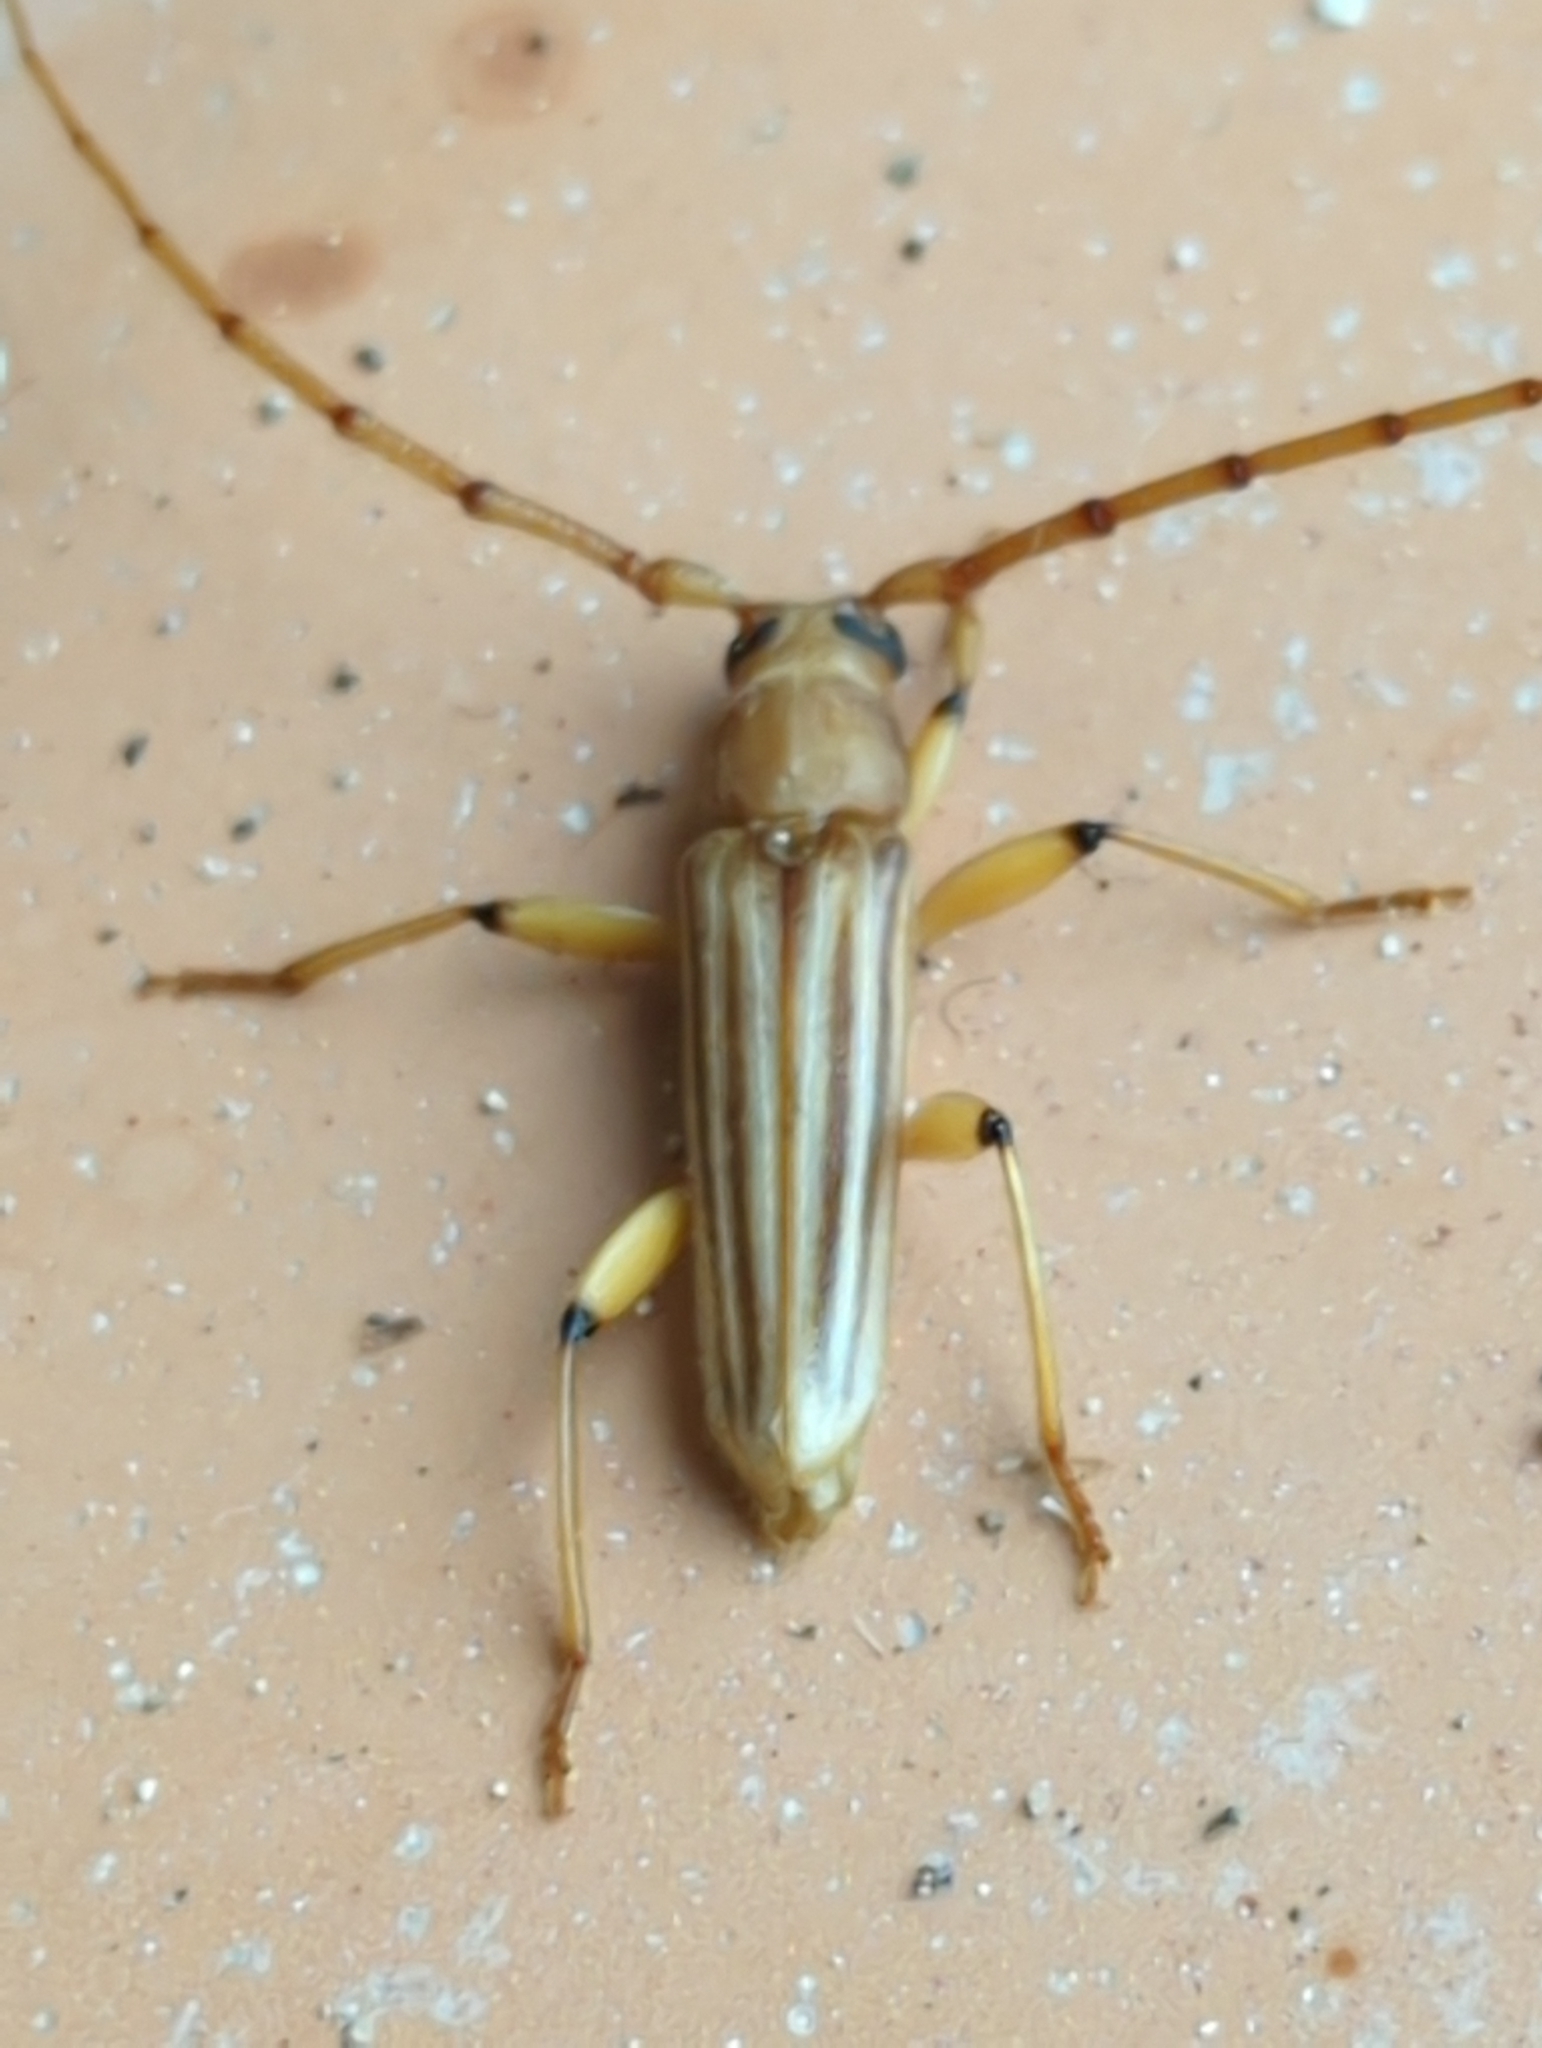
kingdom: Animalia
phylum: Arthropoda
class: Insecta
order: Coleoptera
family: Cerambycidae
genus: Malacopterus
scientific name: Malacopterus tenellus
